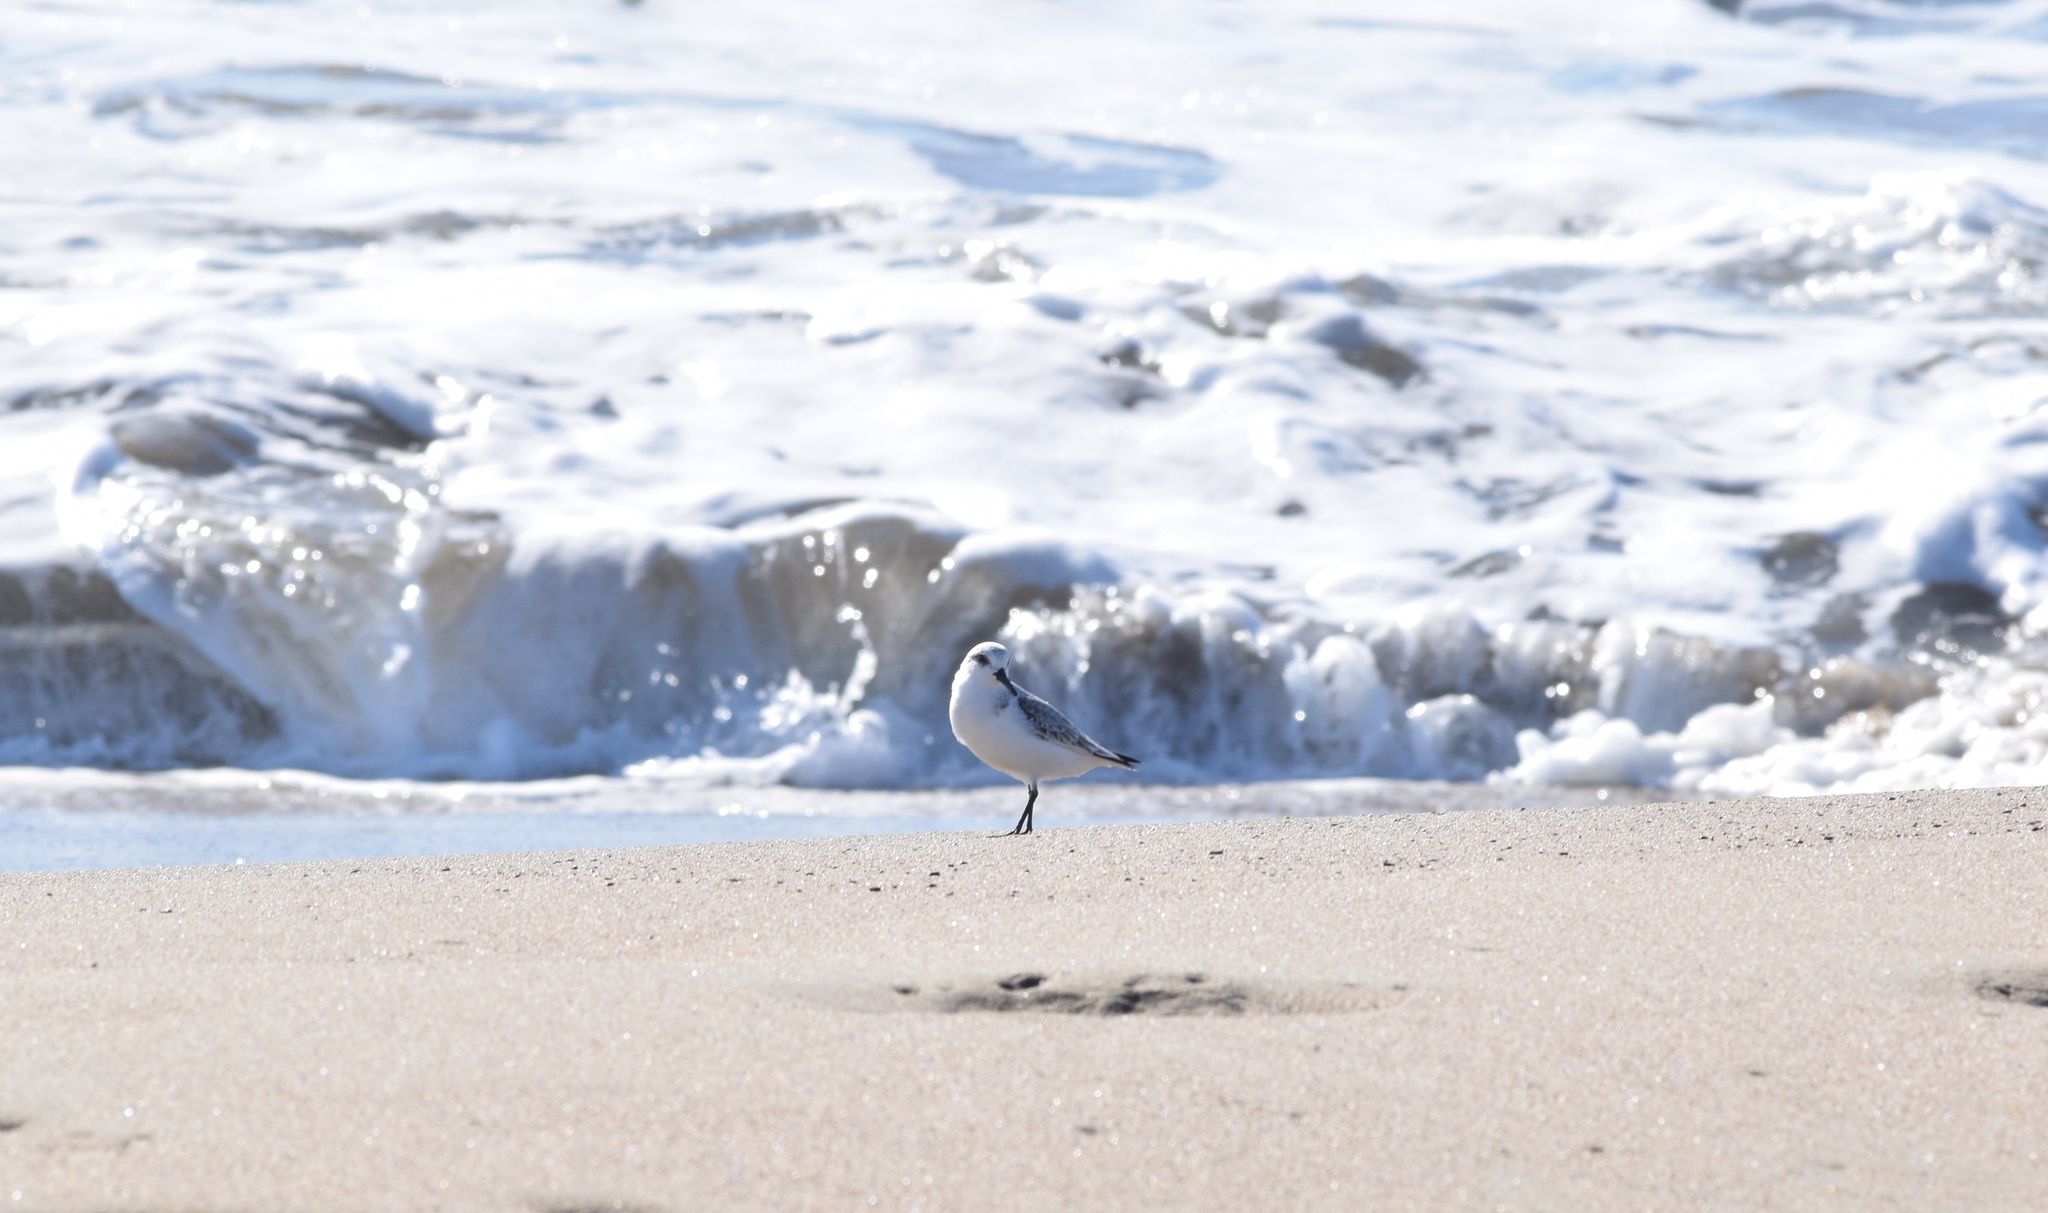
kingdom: Animalia
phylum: Chordata
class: Aves
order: Charadriiformes
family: Scolopacidae
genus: Calidris
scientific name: Calidris alba
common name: Sanderling
